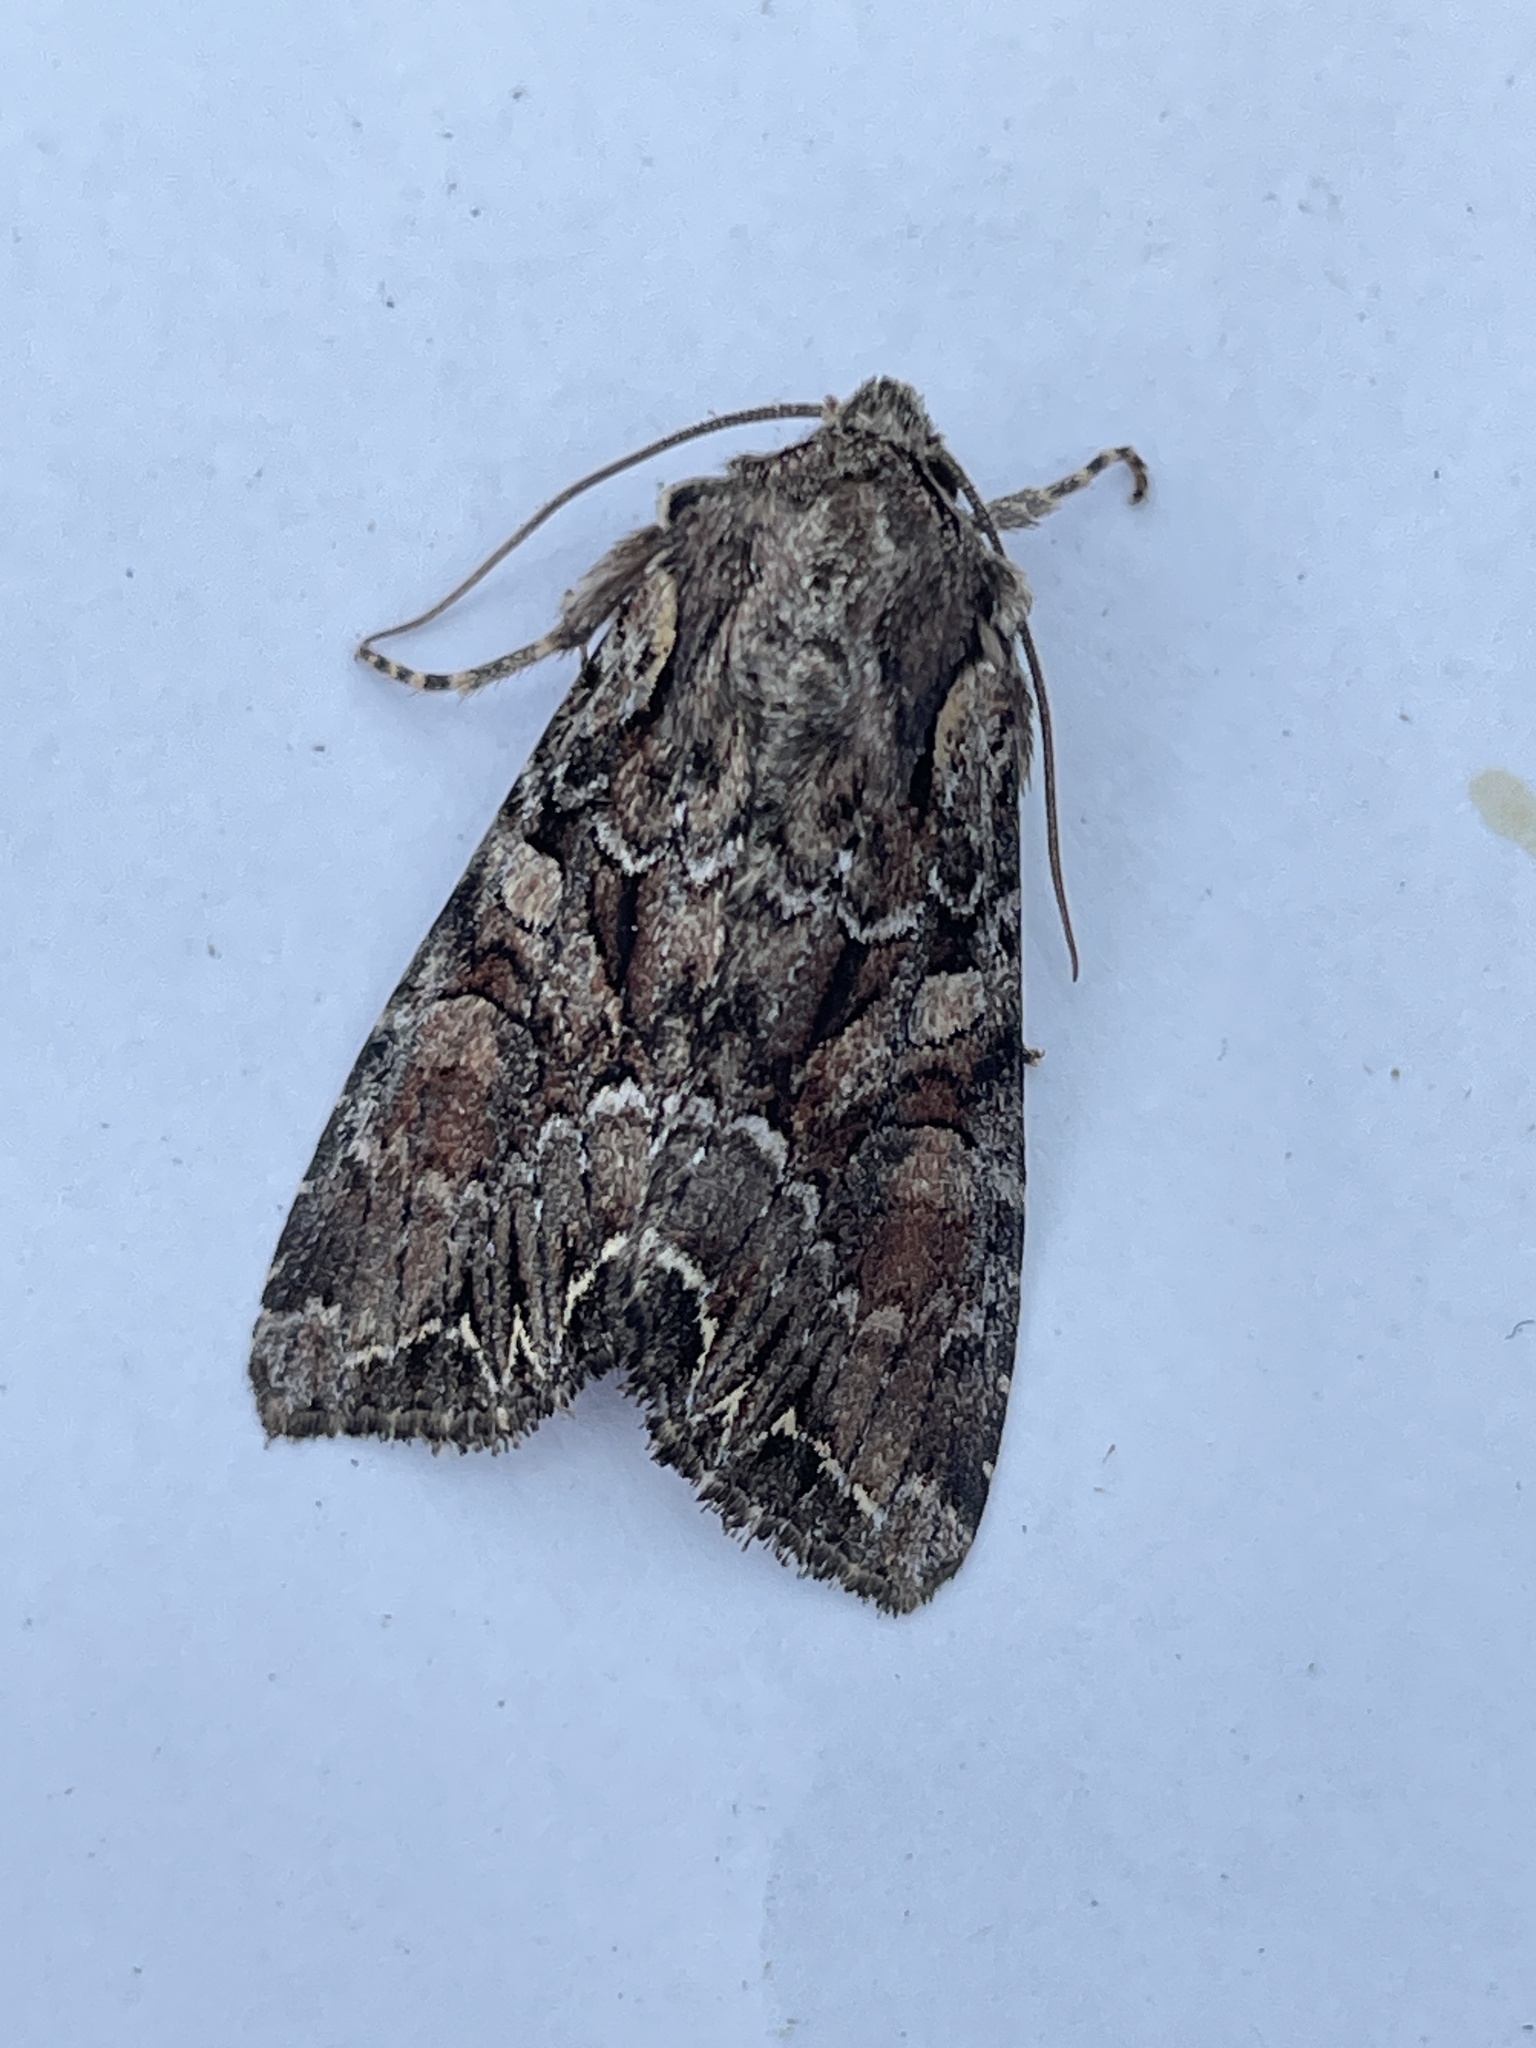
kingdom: Animalia
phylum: Arthropoda
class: Insecta
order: Lepidoptera
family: Noctuidae
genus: Lacanobia
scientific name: Lacanobia thalassina
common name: Pale-shouldered brocade
